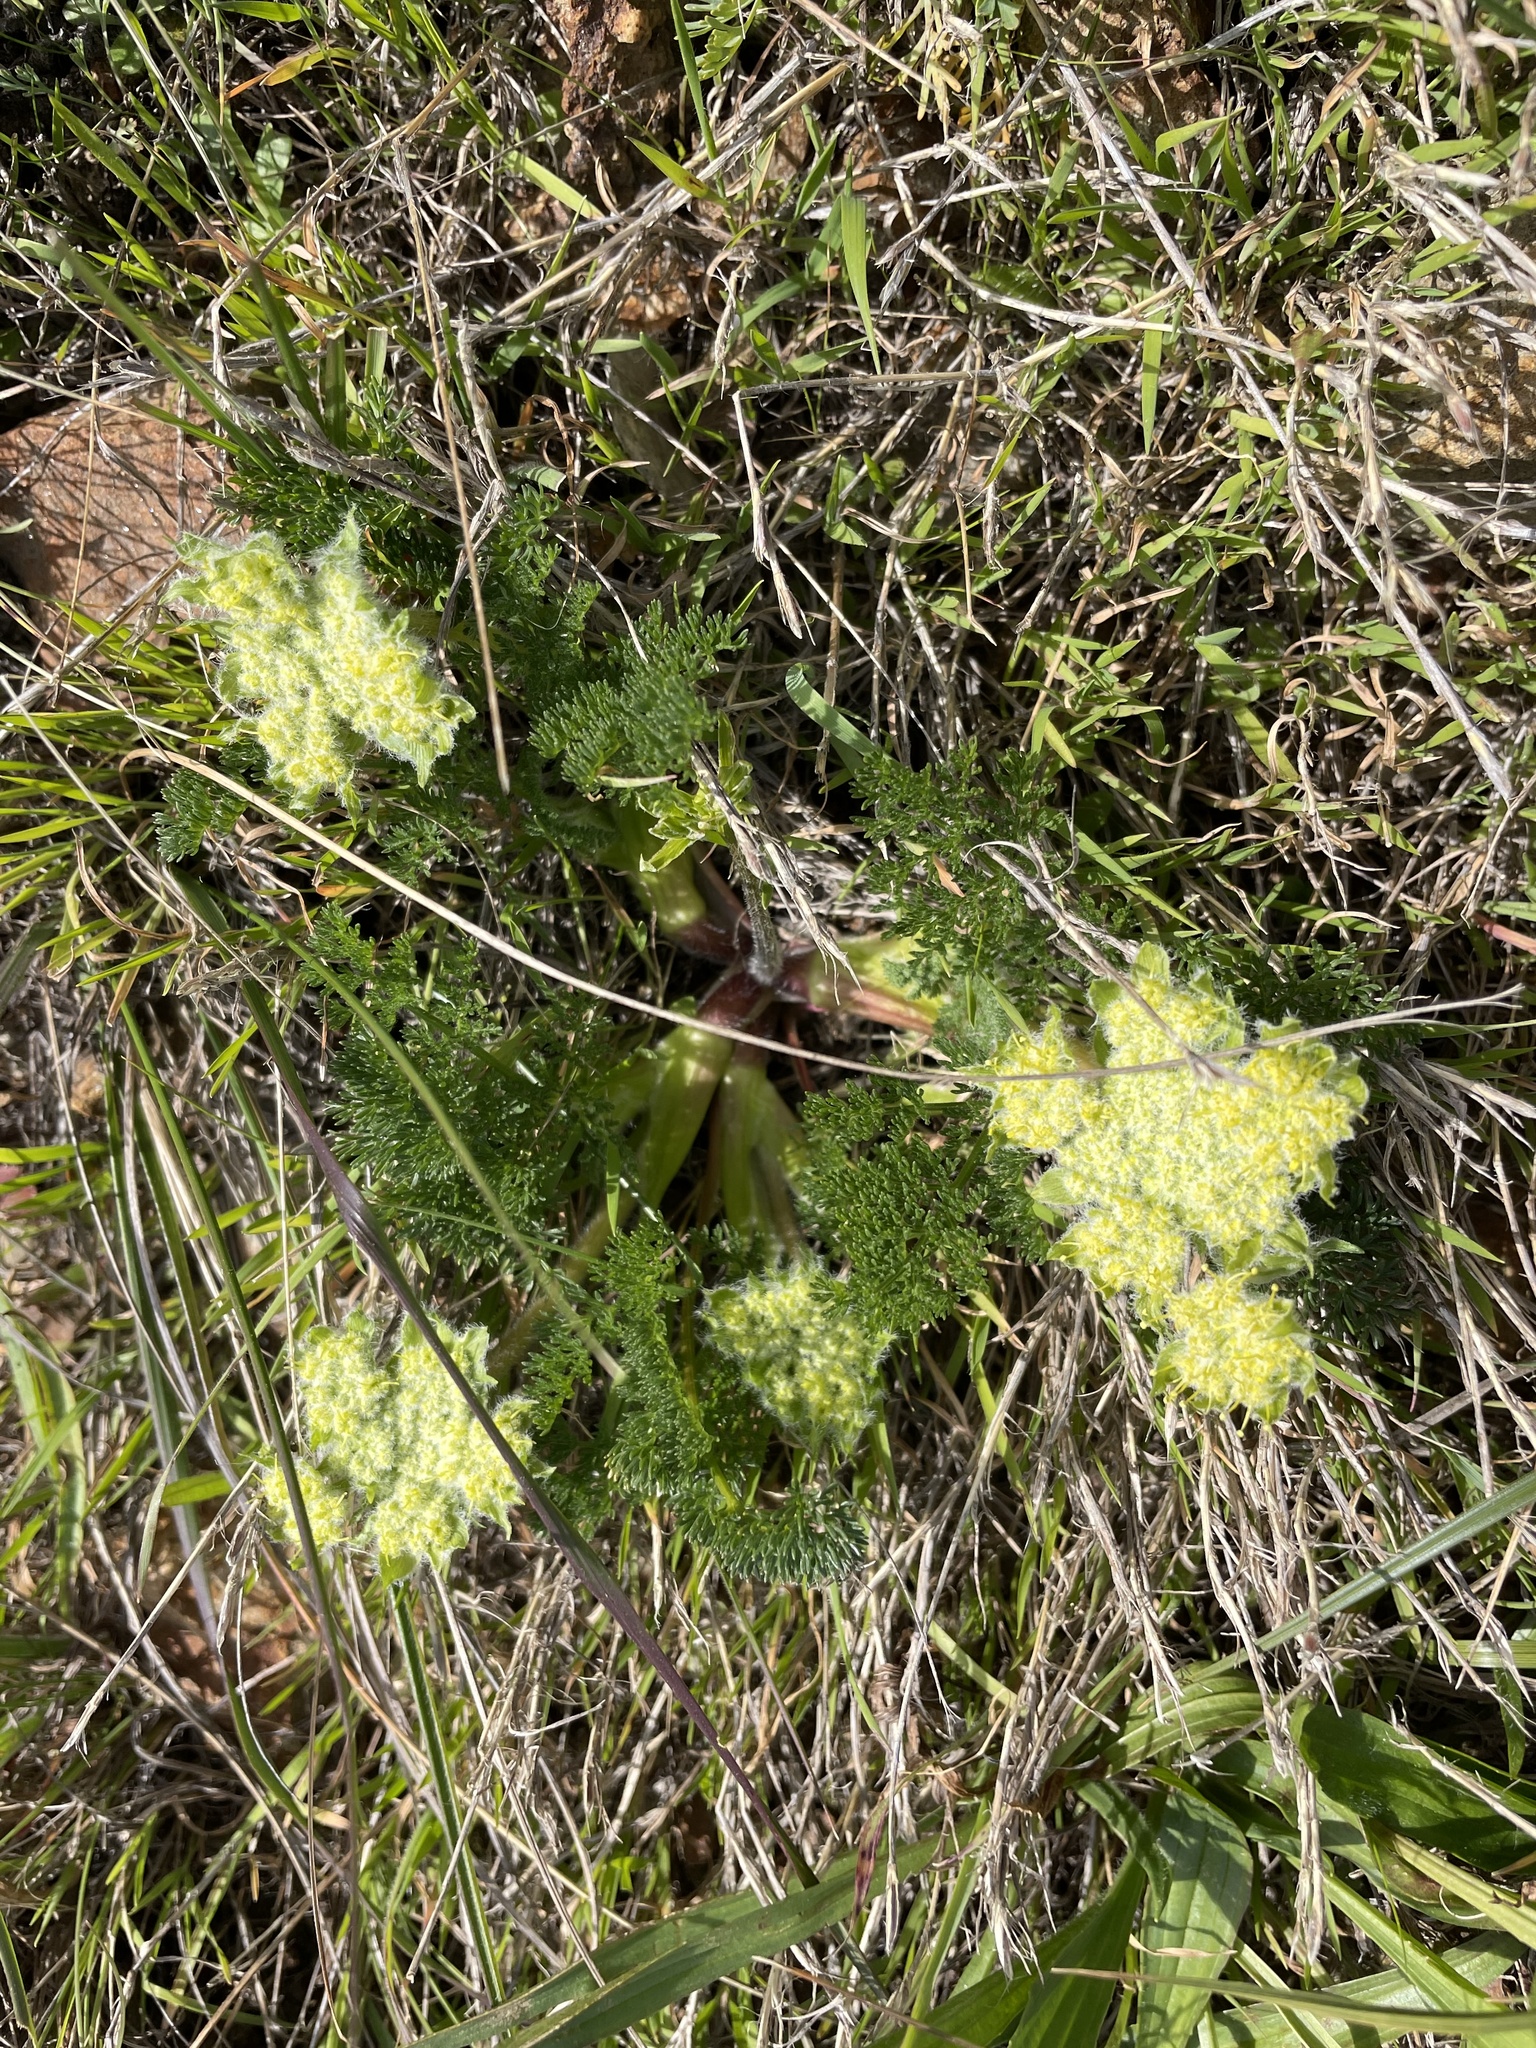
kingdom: Plantae
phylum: Tracheophyta
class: Magnoliopsida
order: Apiales
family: Apiaceae
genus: Lomatium
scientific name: Lomatium dasycarpum
